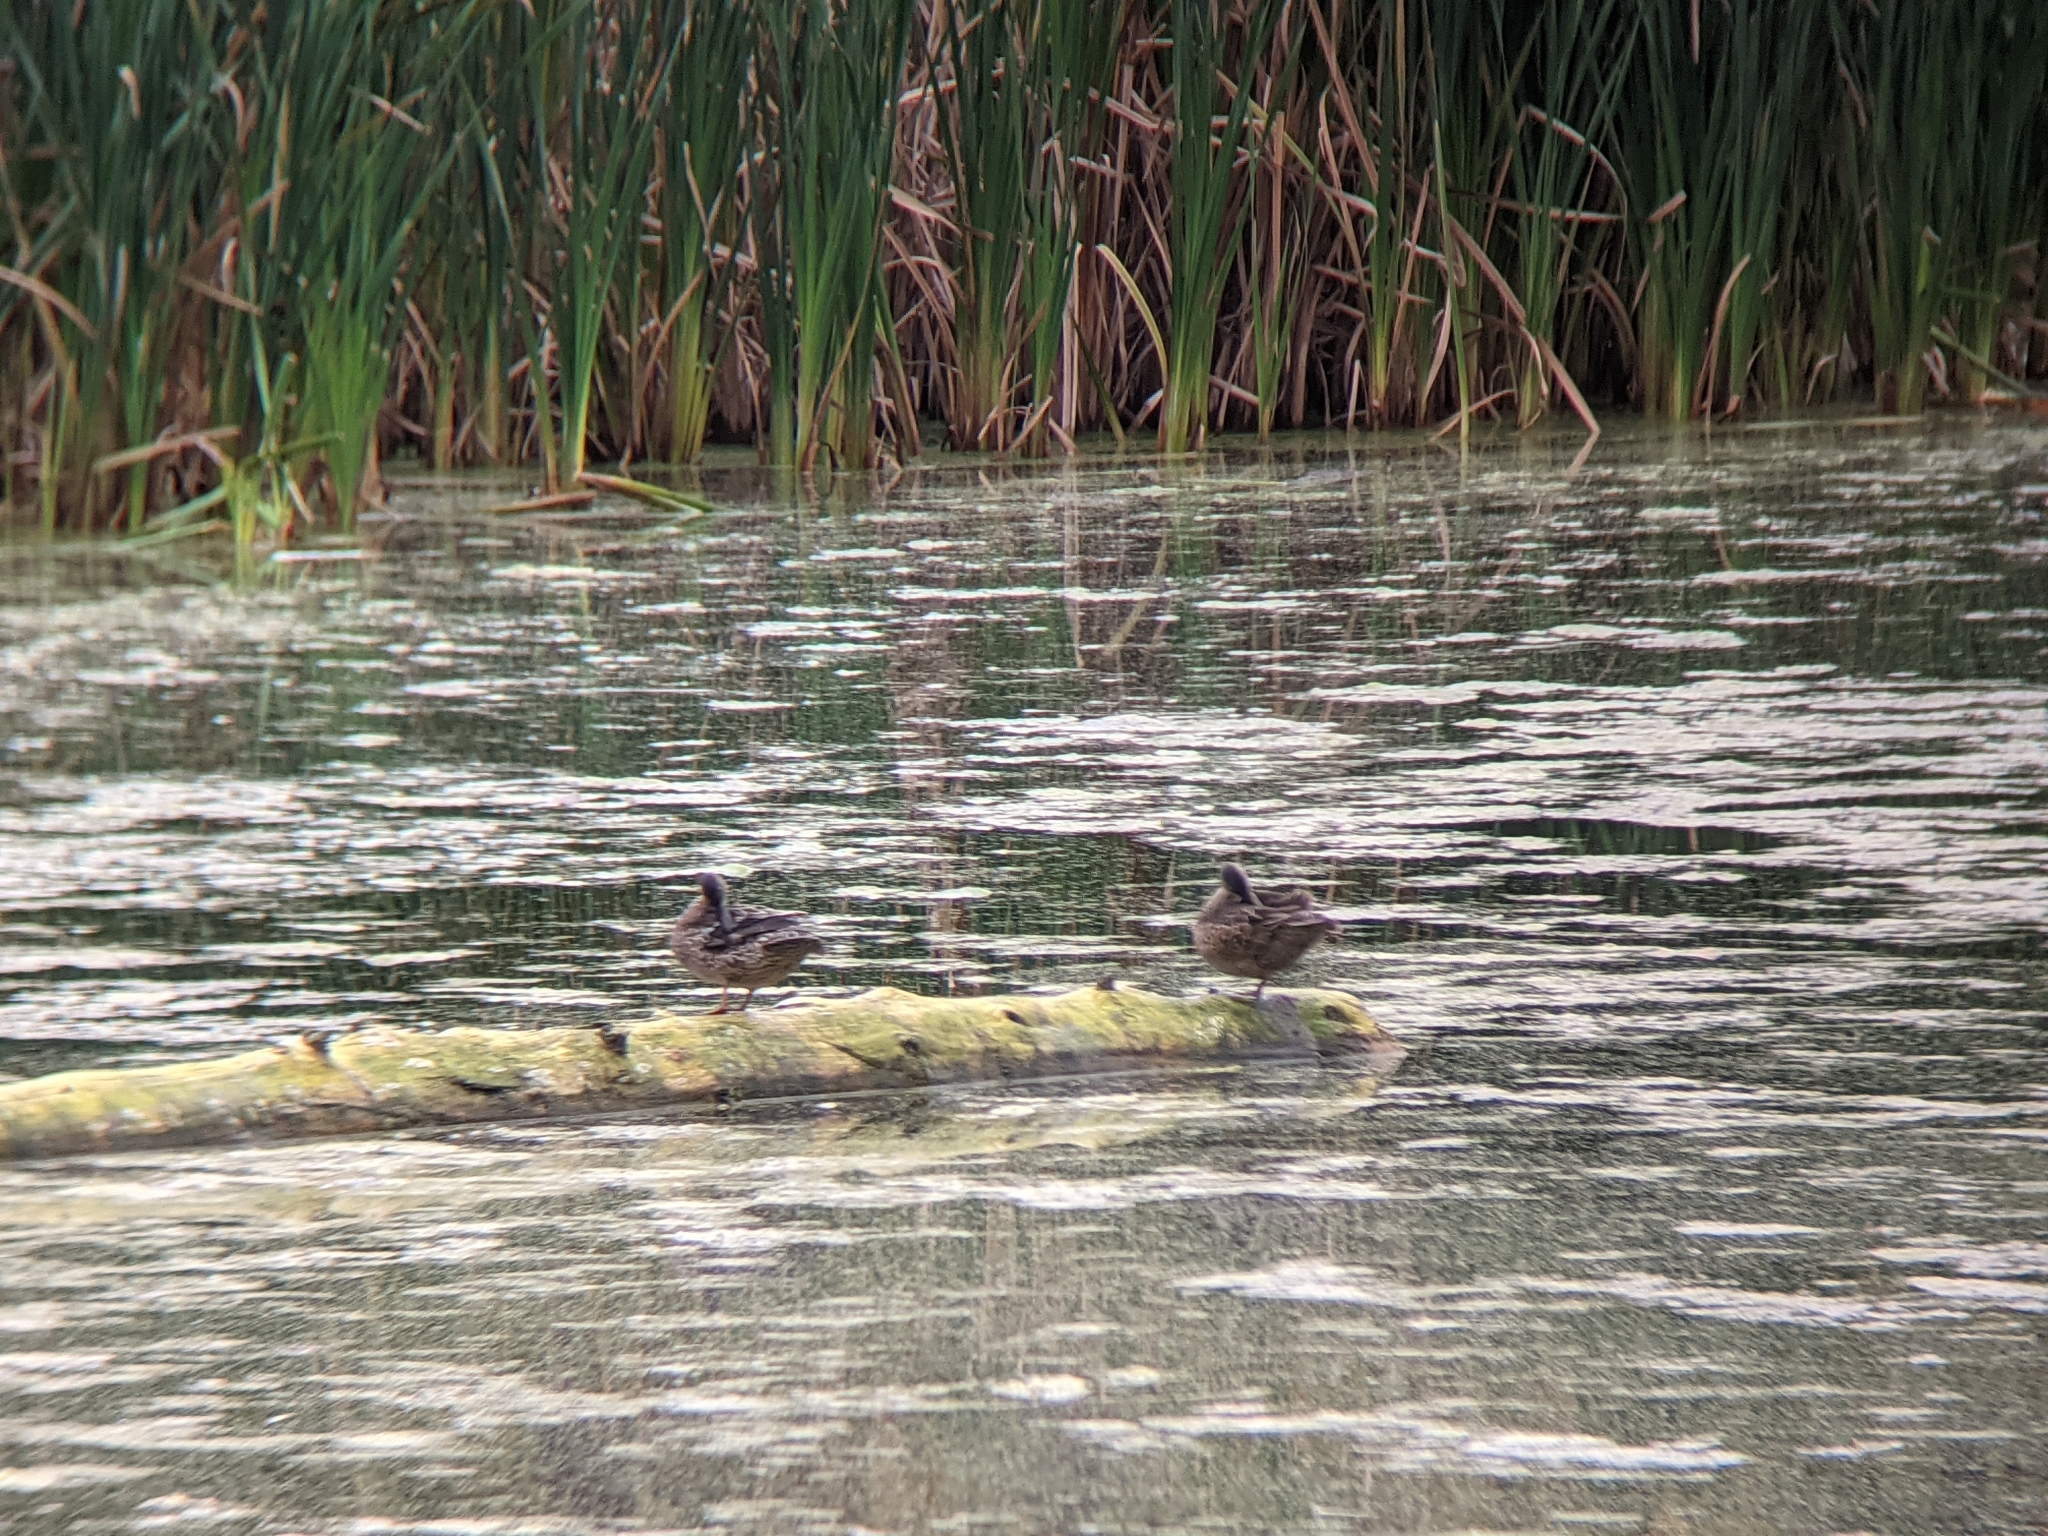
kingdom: Animalia
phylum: Chordata
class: Aves
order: Anseriformes
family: Anatidae
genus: Spatula
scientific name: Spatula discors
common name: Blue-winged teal
